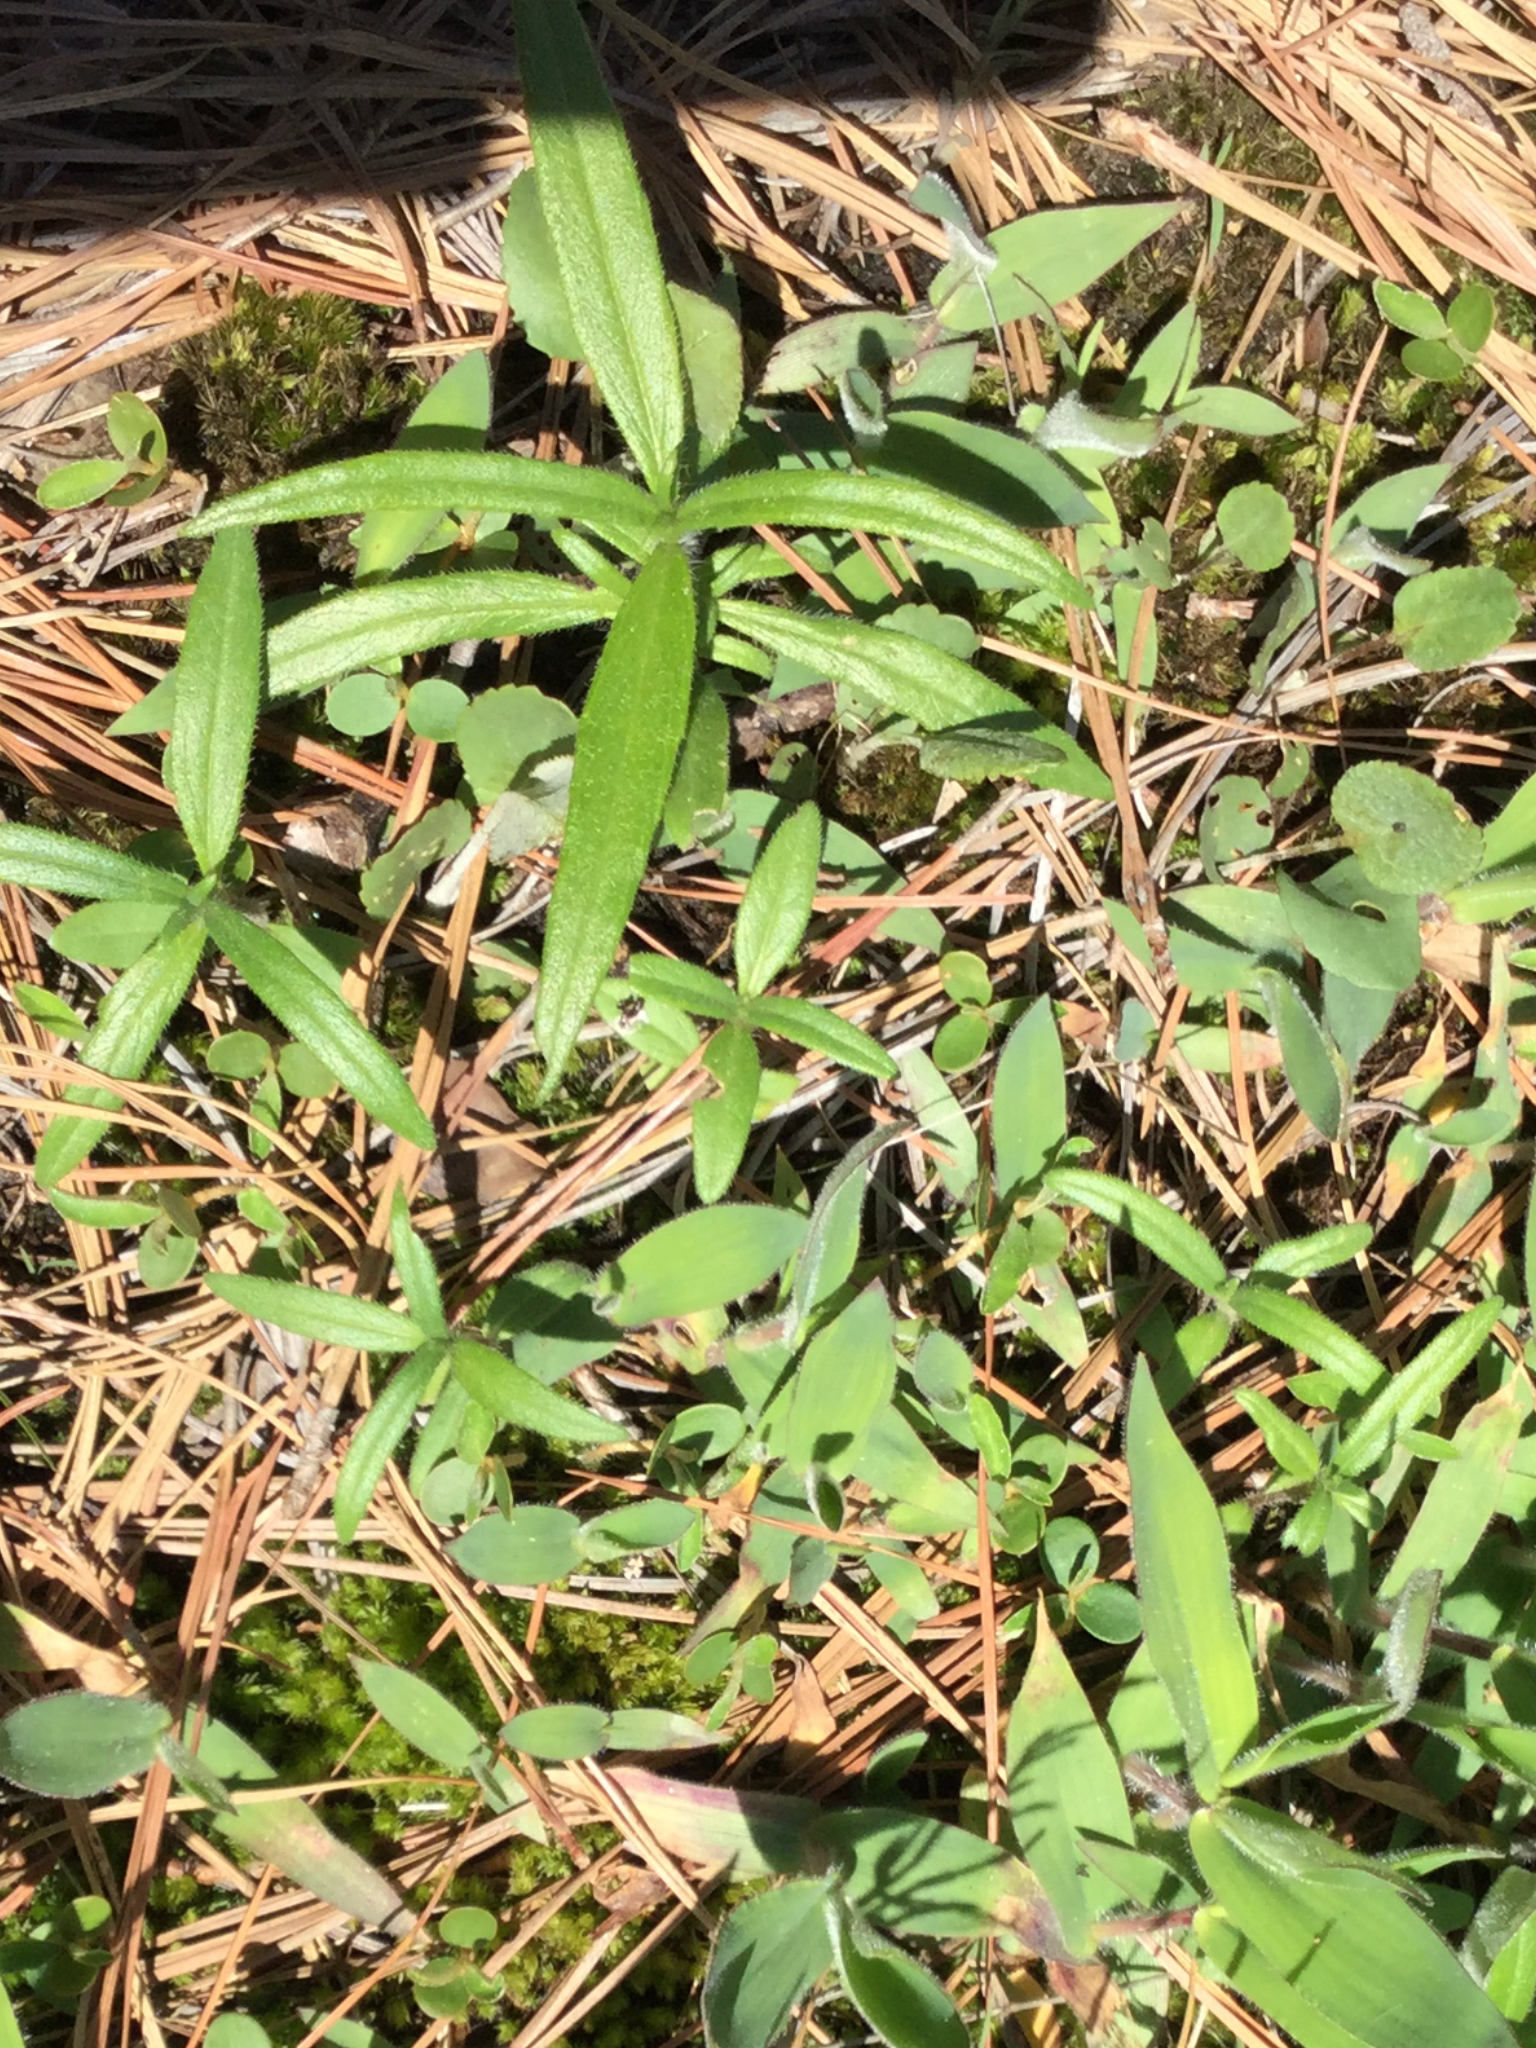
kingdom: Plantae
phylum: Tracheophyta
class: Magnoliopsida
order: Asterales
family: Asteraceae
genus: Helianthus
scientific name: Helianthus porteri
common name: Porter's sunflower
